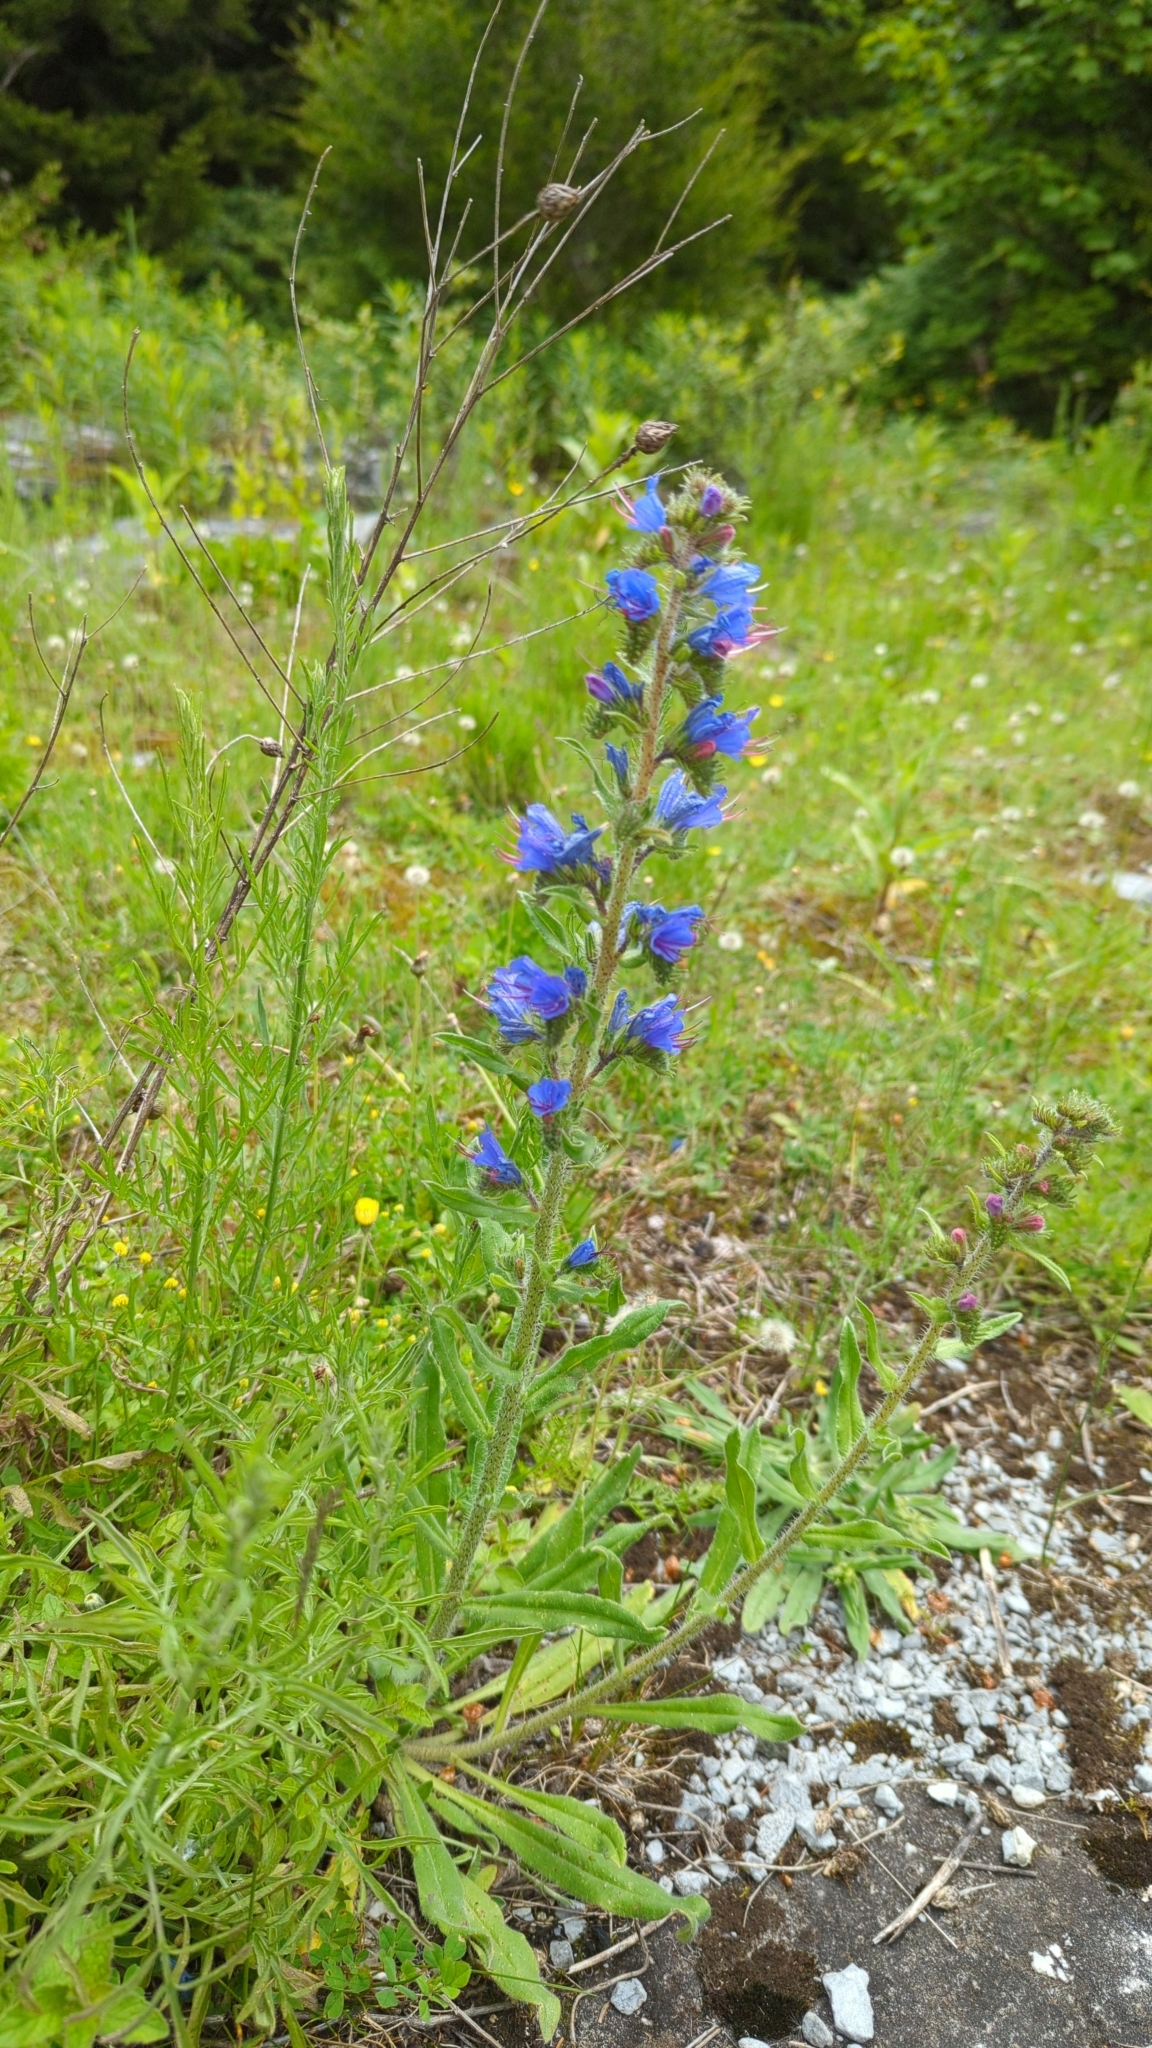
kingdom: Plantae
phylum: Tracheophyta
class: Magnoliopsida
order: Boraginales
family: Boraginaceae
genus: Echium
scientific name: Echium vulgare
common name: Common viper's bugloss
